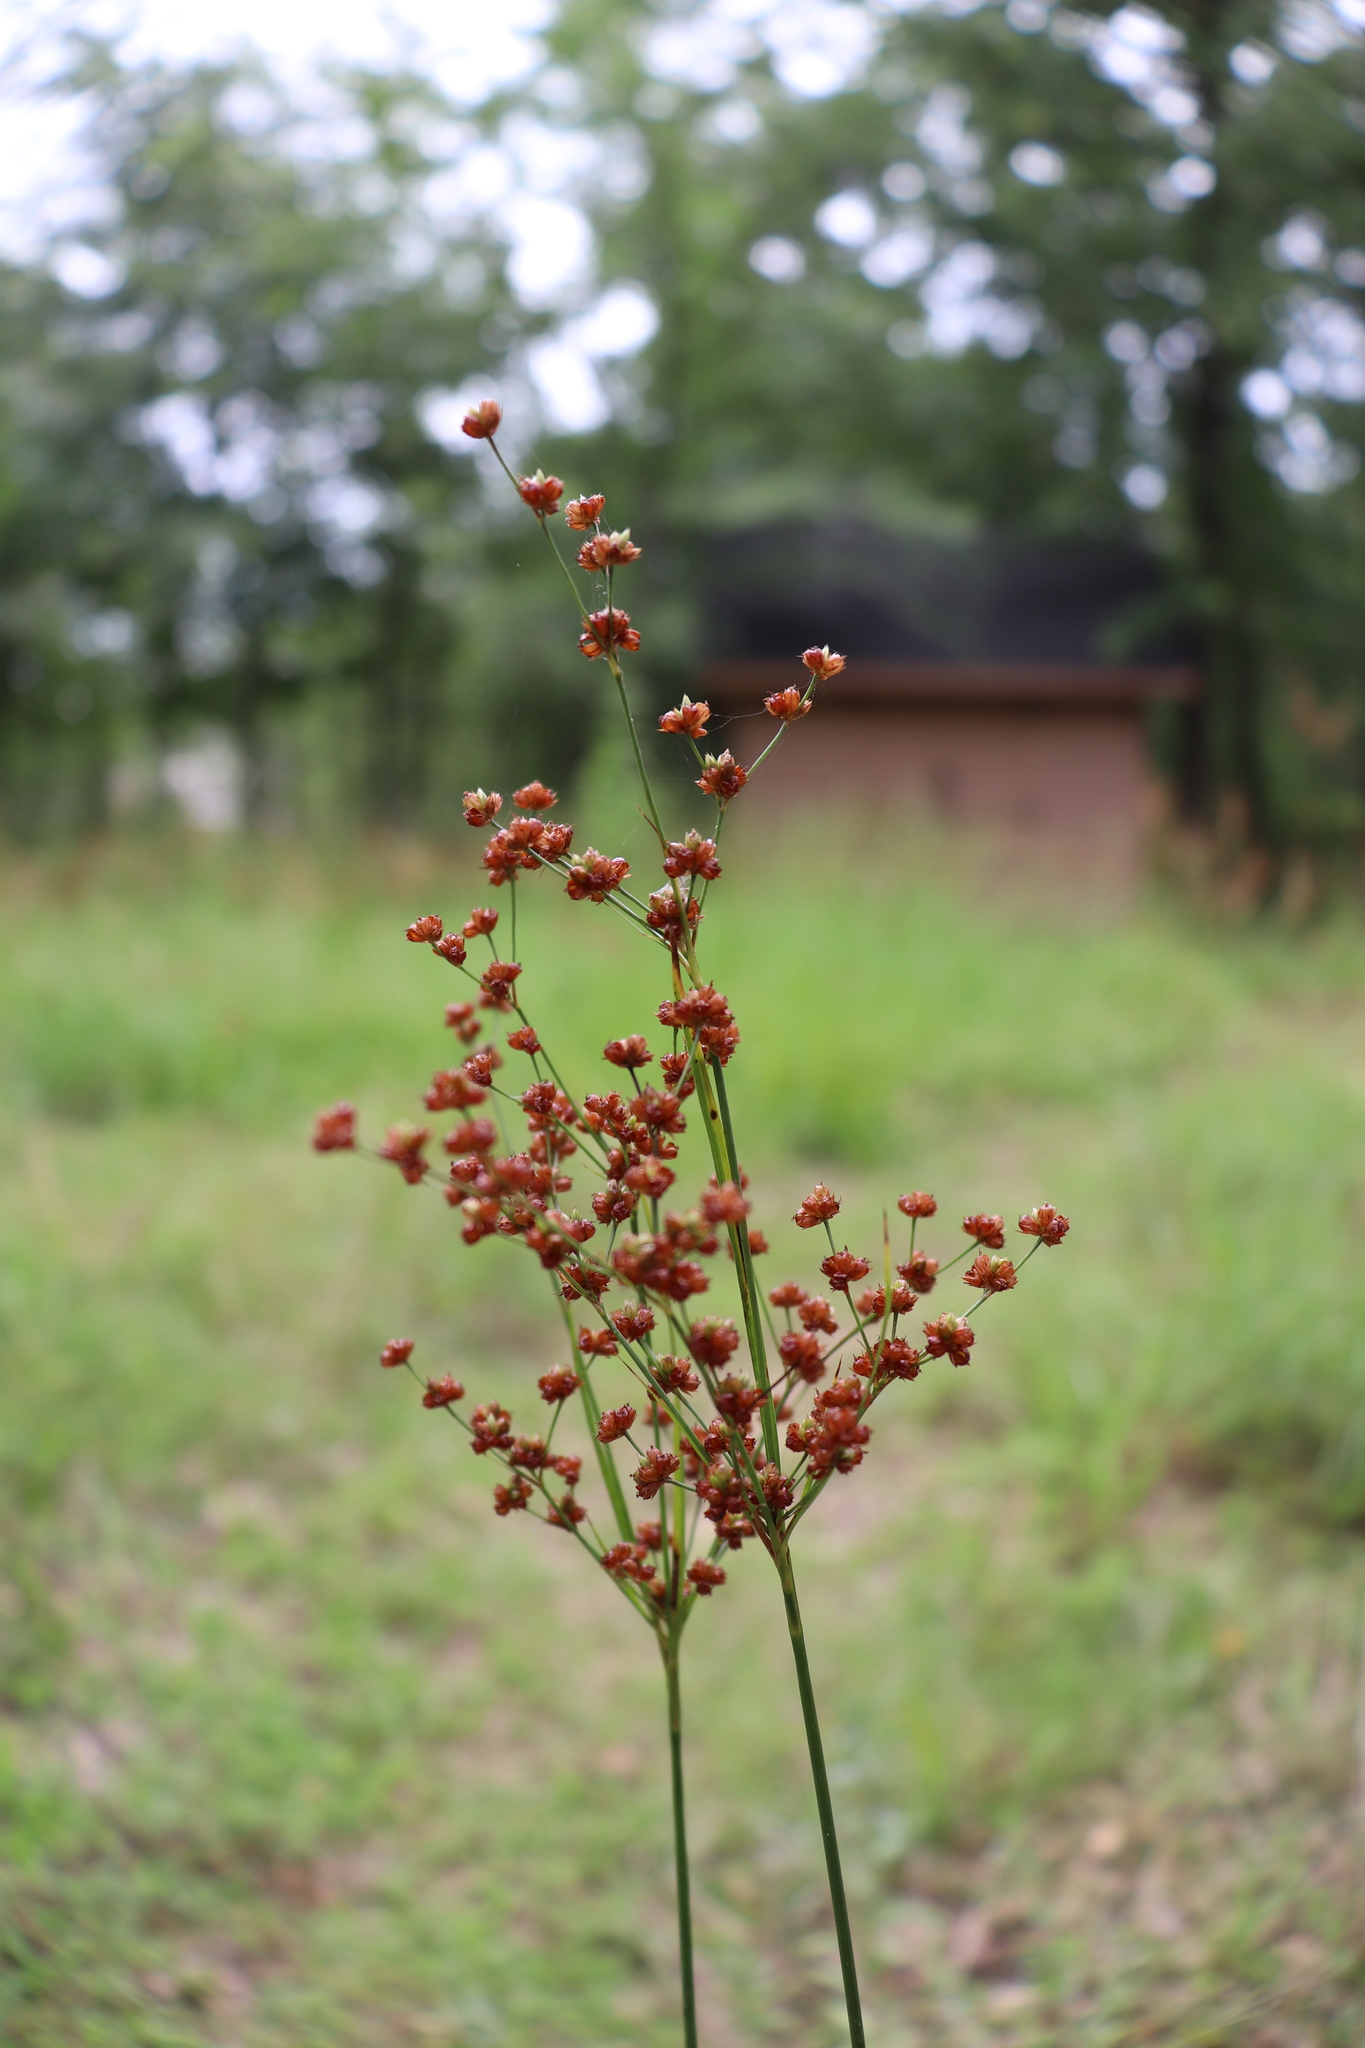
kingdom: Plantae
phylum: Tracheophyta
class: Liliopsida
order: Poales
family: Juncaceae
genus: Juncus
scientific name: Juncus marginatus
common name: Grass-leaf rush
